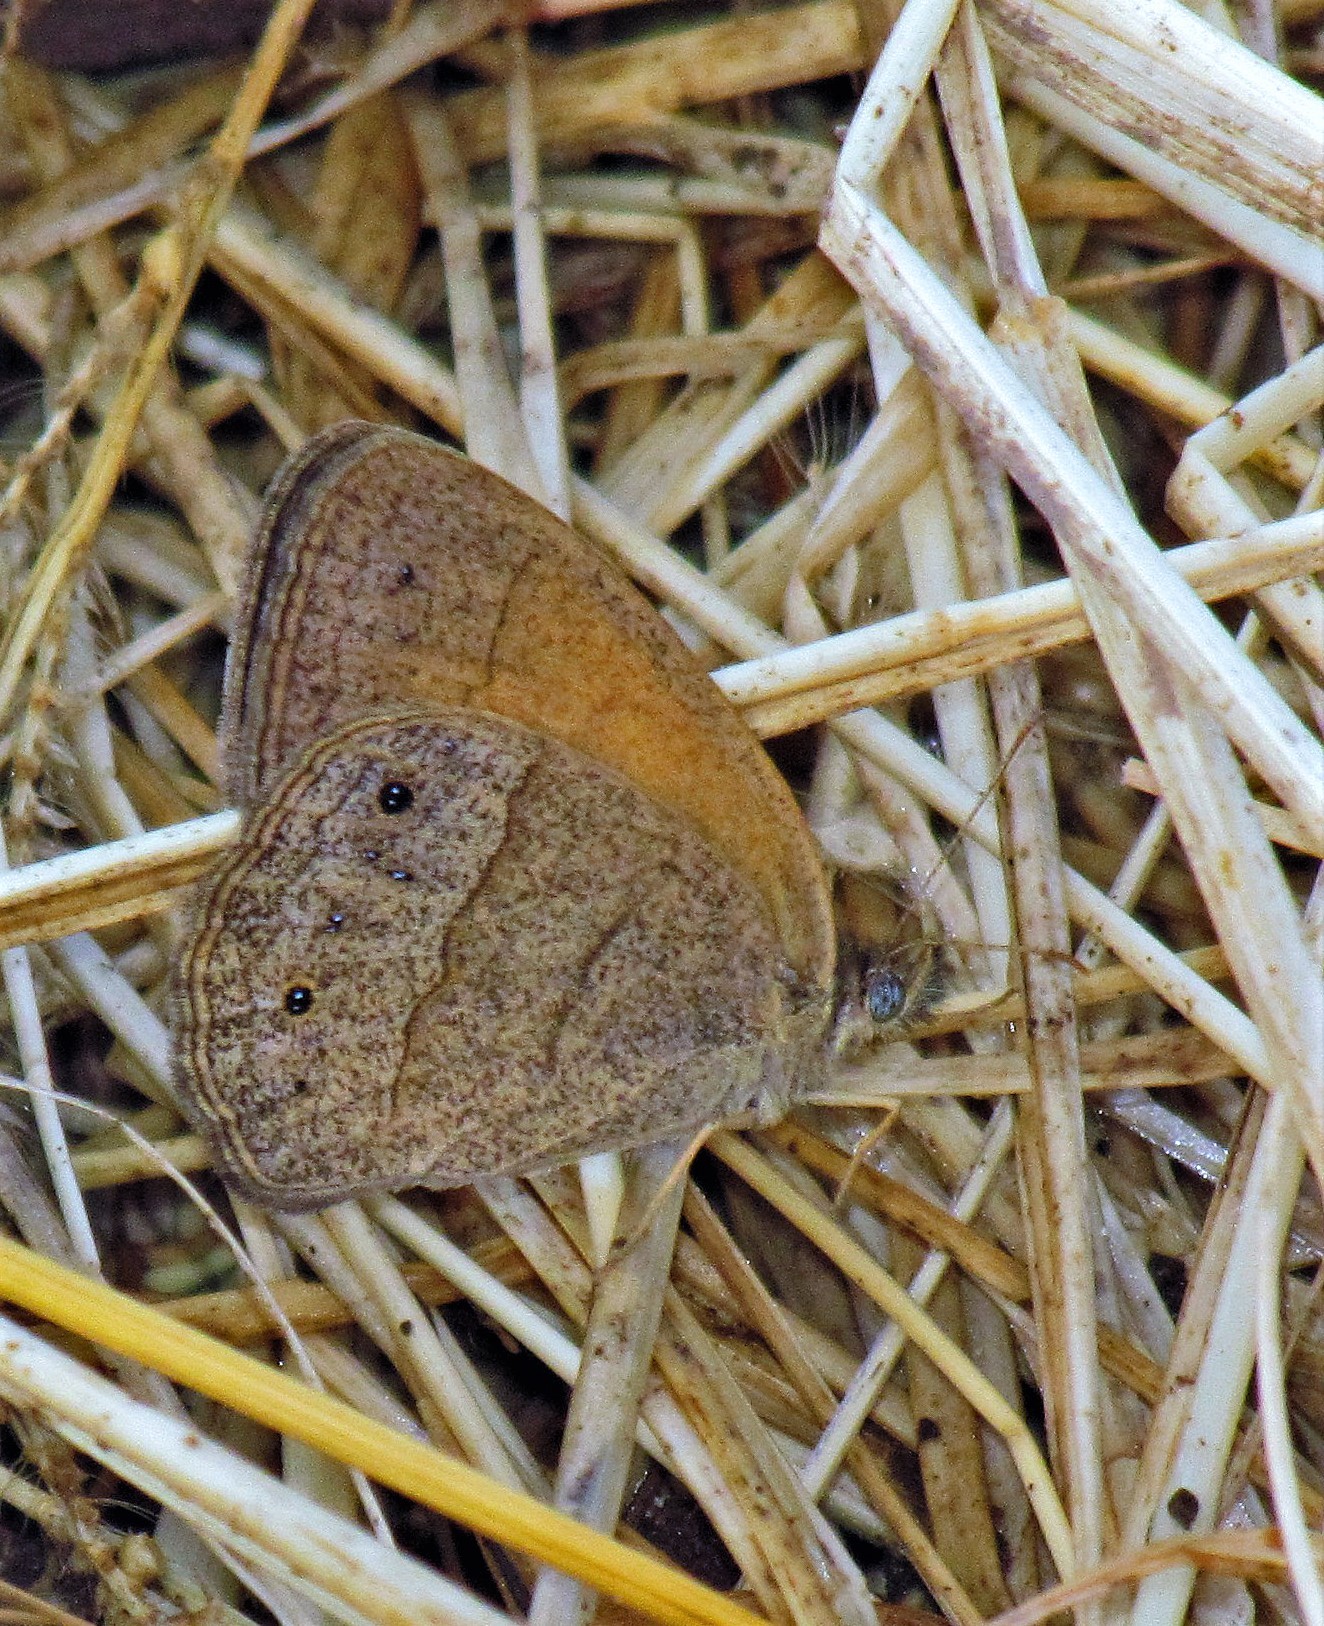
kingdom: Animalia
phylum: Arthropoda
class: Insecta
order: Lepidoptera
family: Nymphalidae
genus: Yphthimoides
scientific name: Yphthimoides celmis
